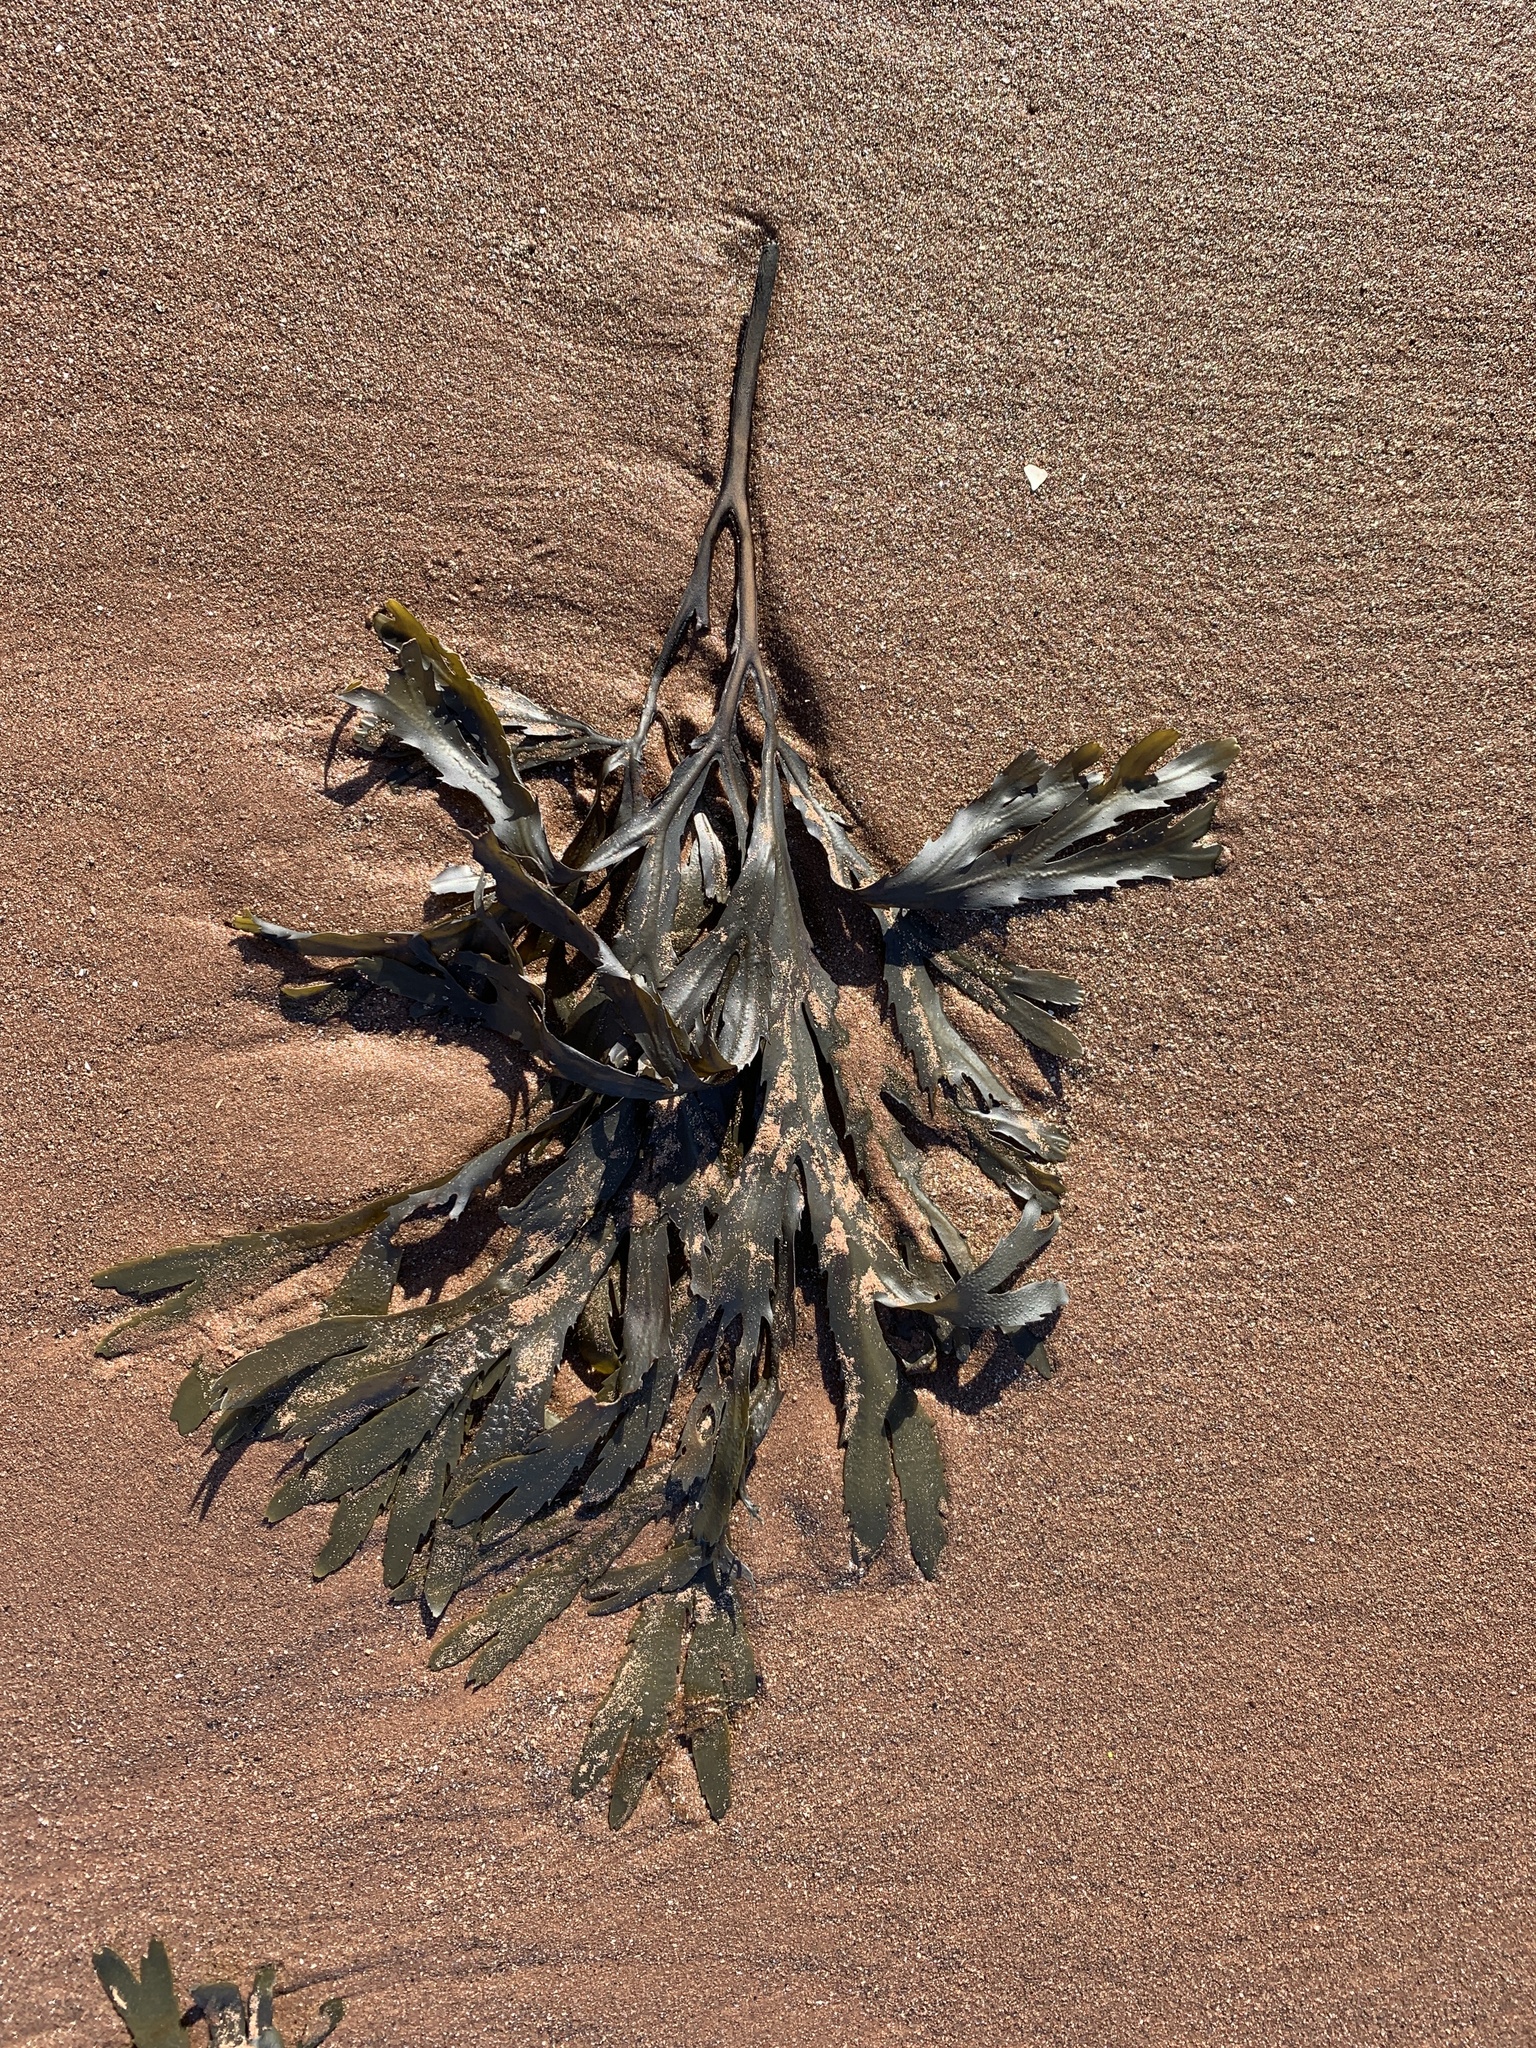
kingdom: Chromista
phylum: Ochrophyta
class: Phaeophyceae
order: Fucales
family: Fucaceae
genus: Fucus
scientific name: Fucus serratus
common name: Toothed wrack
